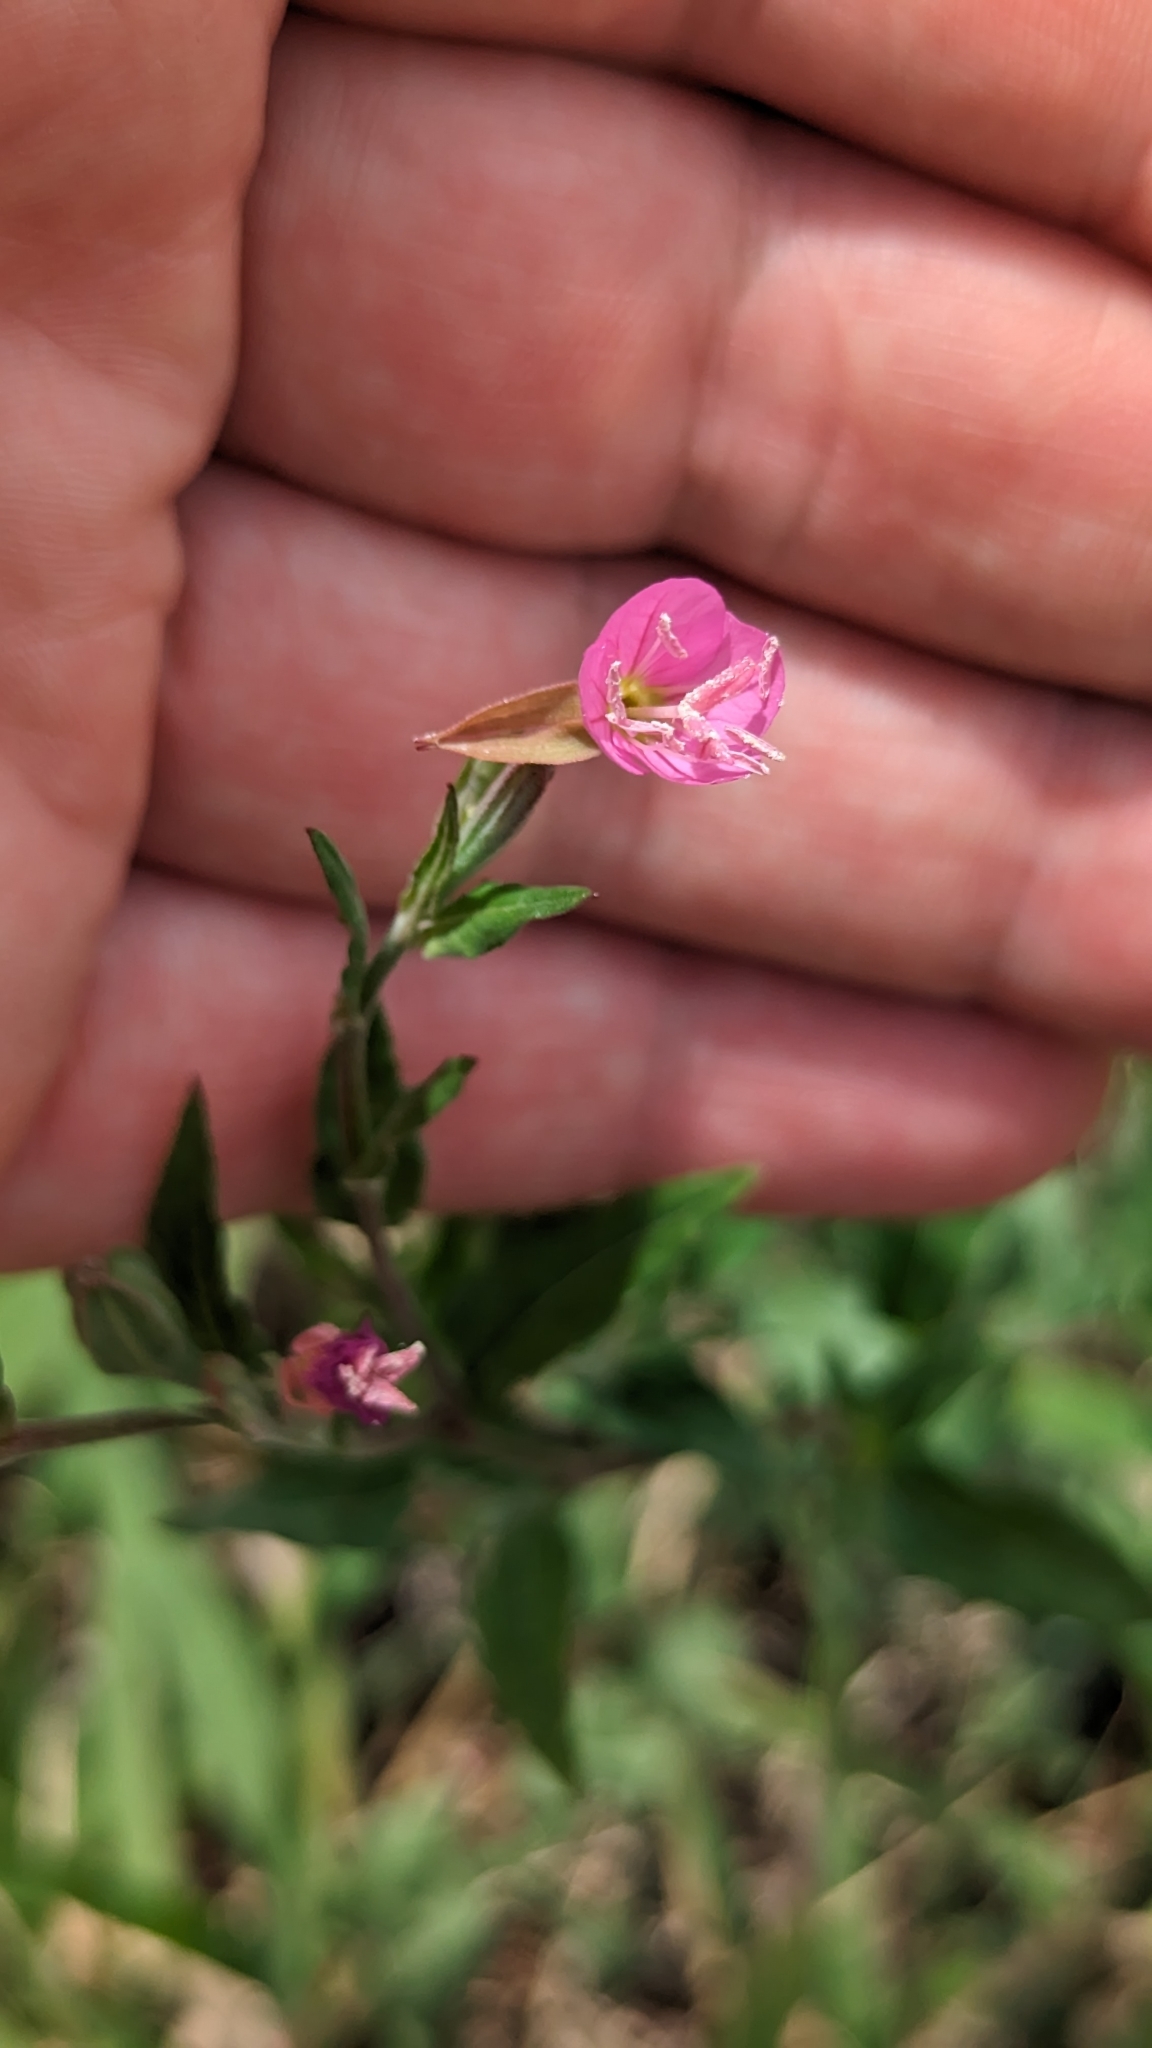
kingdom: Plantae
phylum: Tracheophyta
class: Magnoliopsida
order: Myrtales
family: Onagraceae
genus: Oenothera
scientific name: Oenothera rosea
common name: Rosy evening-primrose
